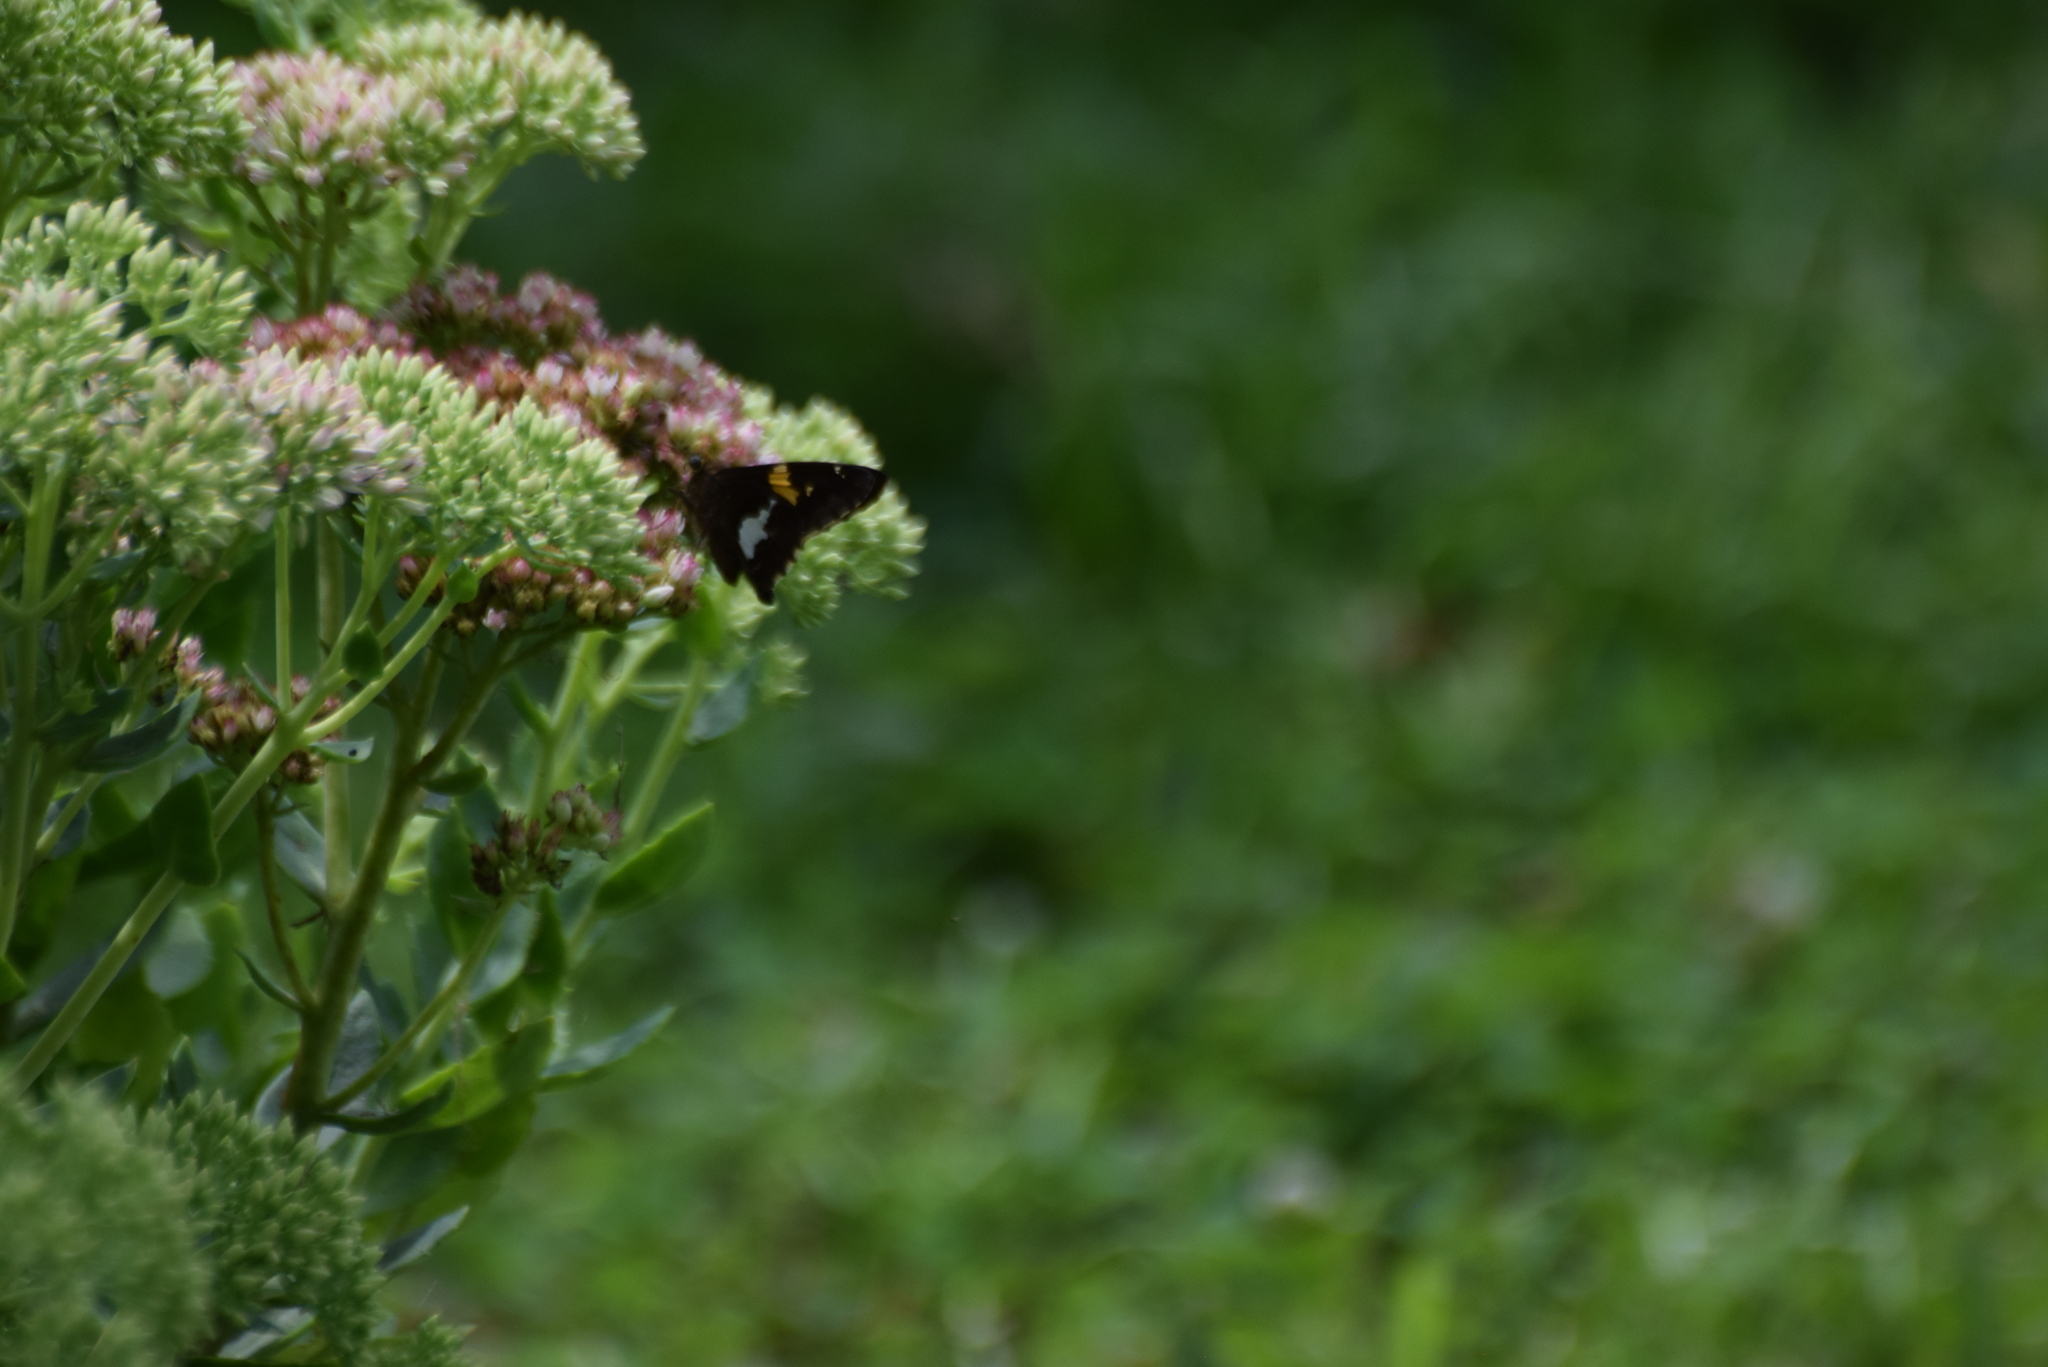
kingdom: Animalia
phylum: Arthropoda
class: Insecta
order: Lepidoptera
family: Hesperiidae
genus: Epargyreus
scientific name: Epargyreus clarus
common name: Silver-spotted skipper
